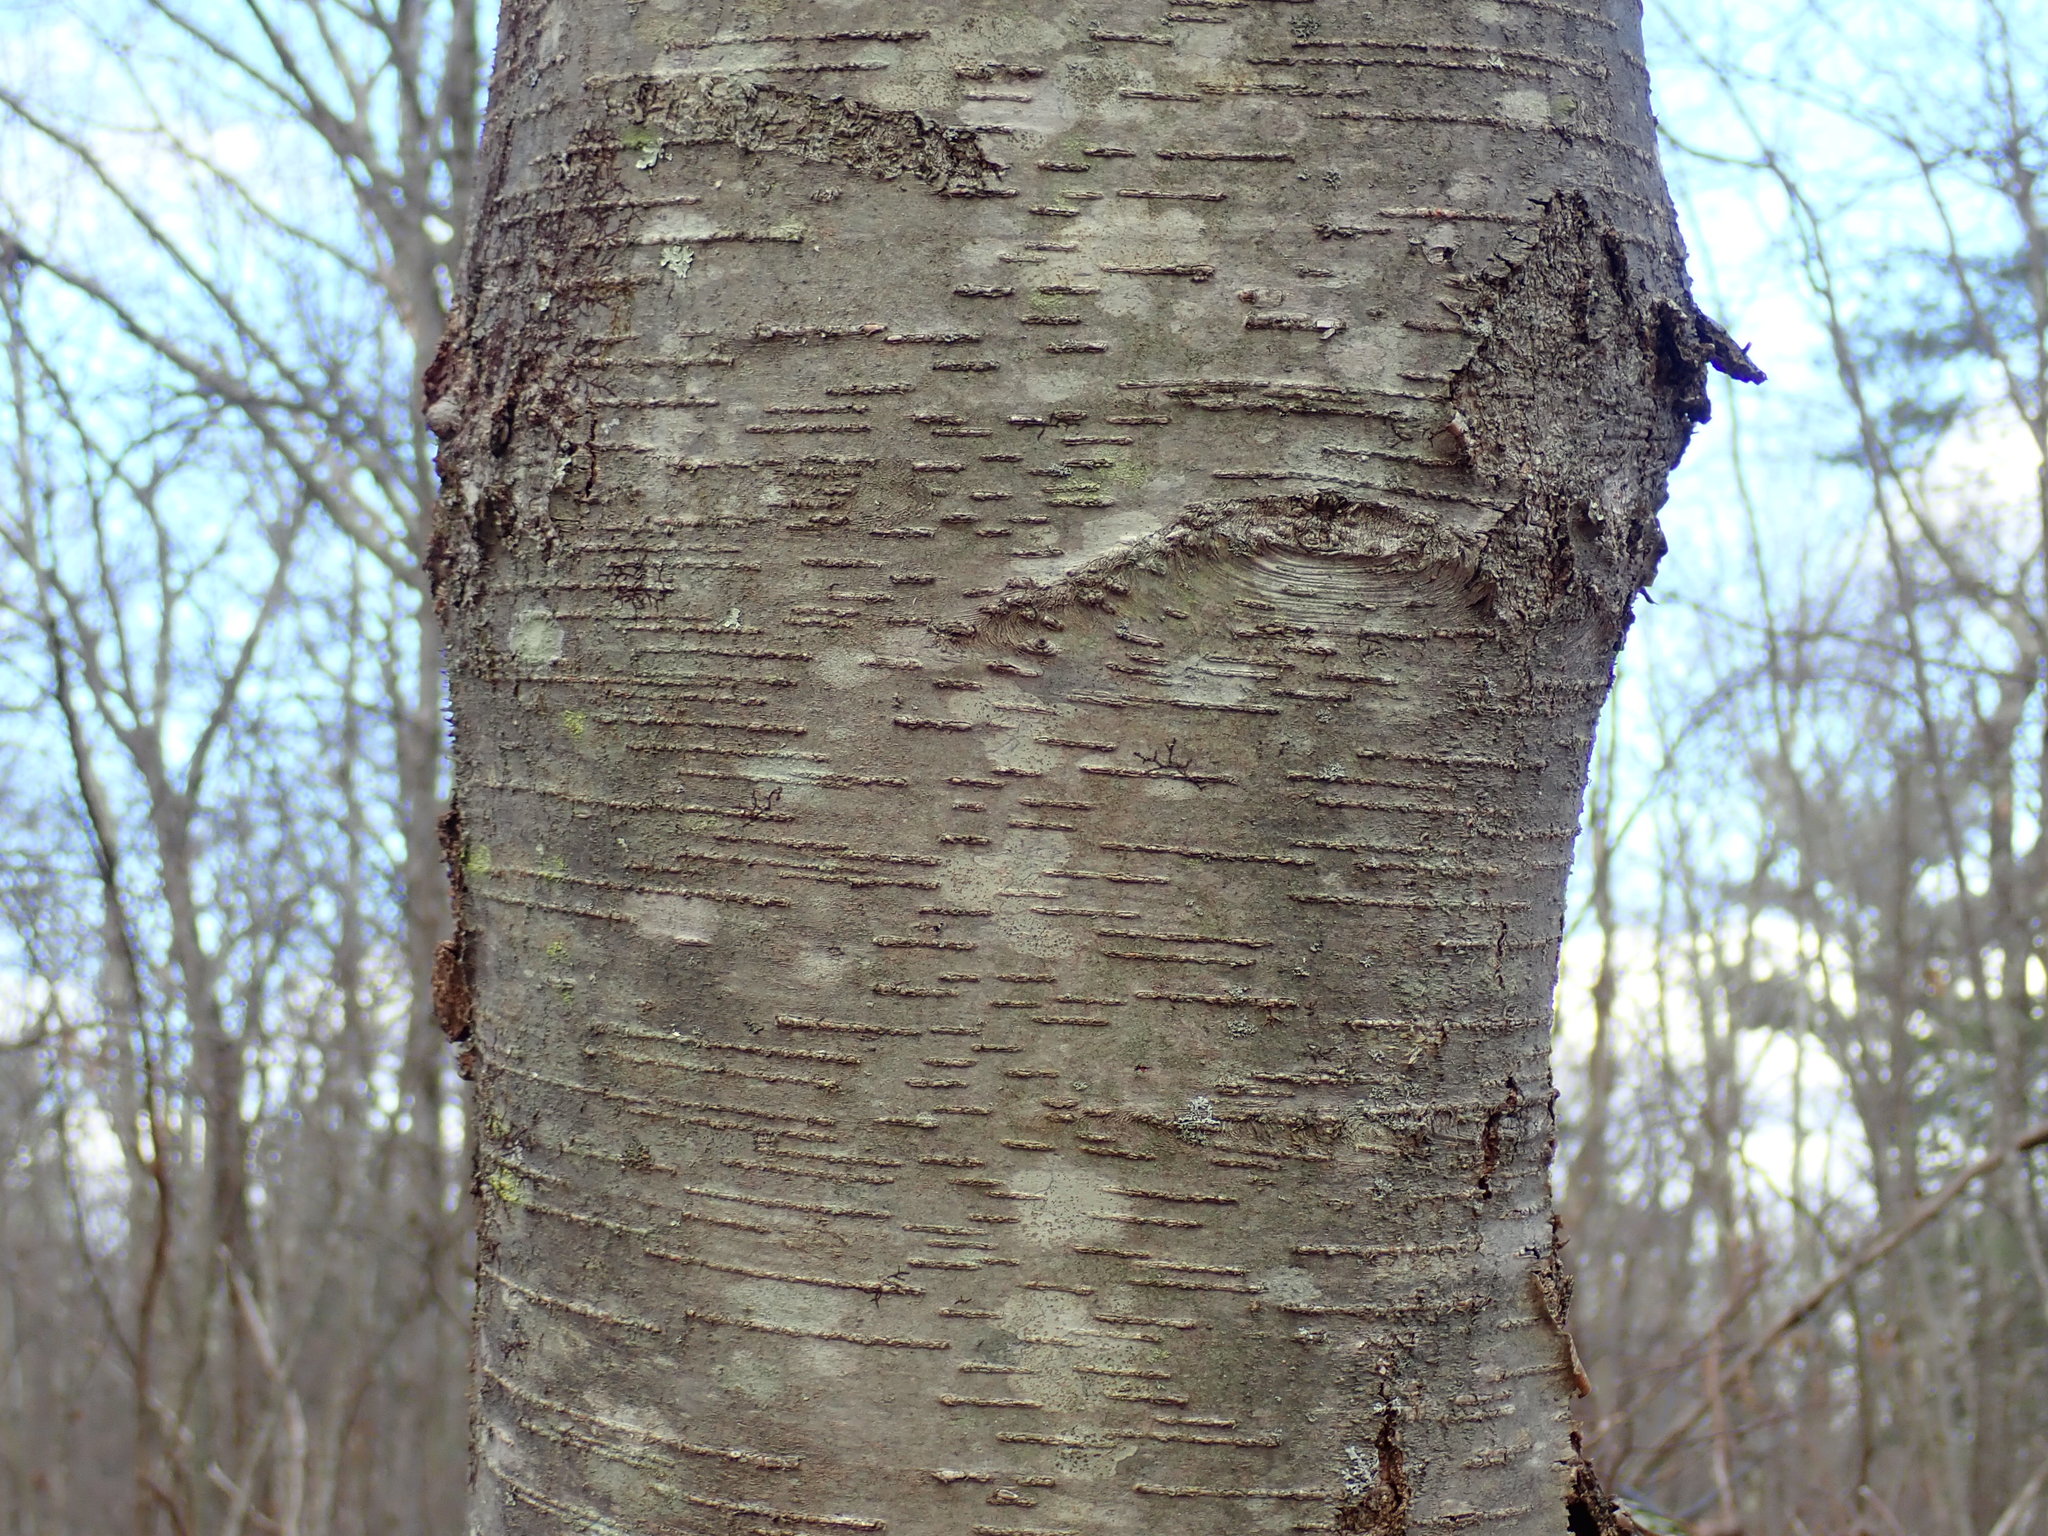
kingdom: Plantae
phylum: Tracheophyta
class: Magnoliopsida
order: Fagales
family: Betulaceae
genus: Betula
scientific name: Betula lenta
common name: Black birch
